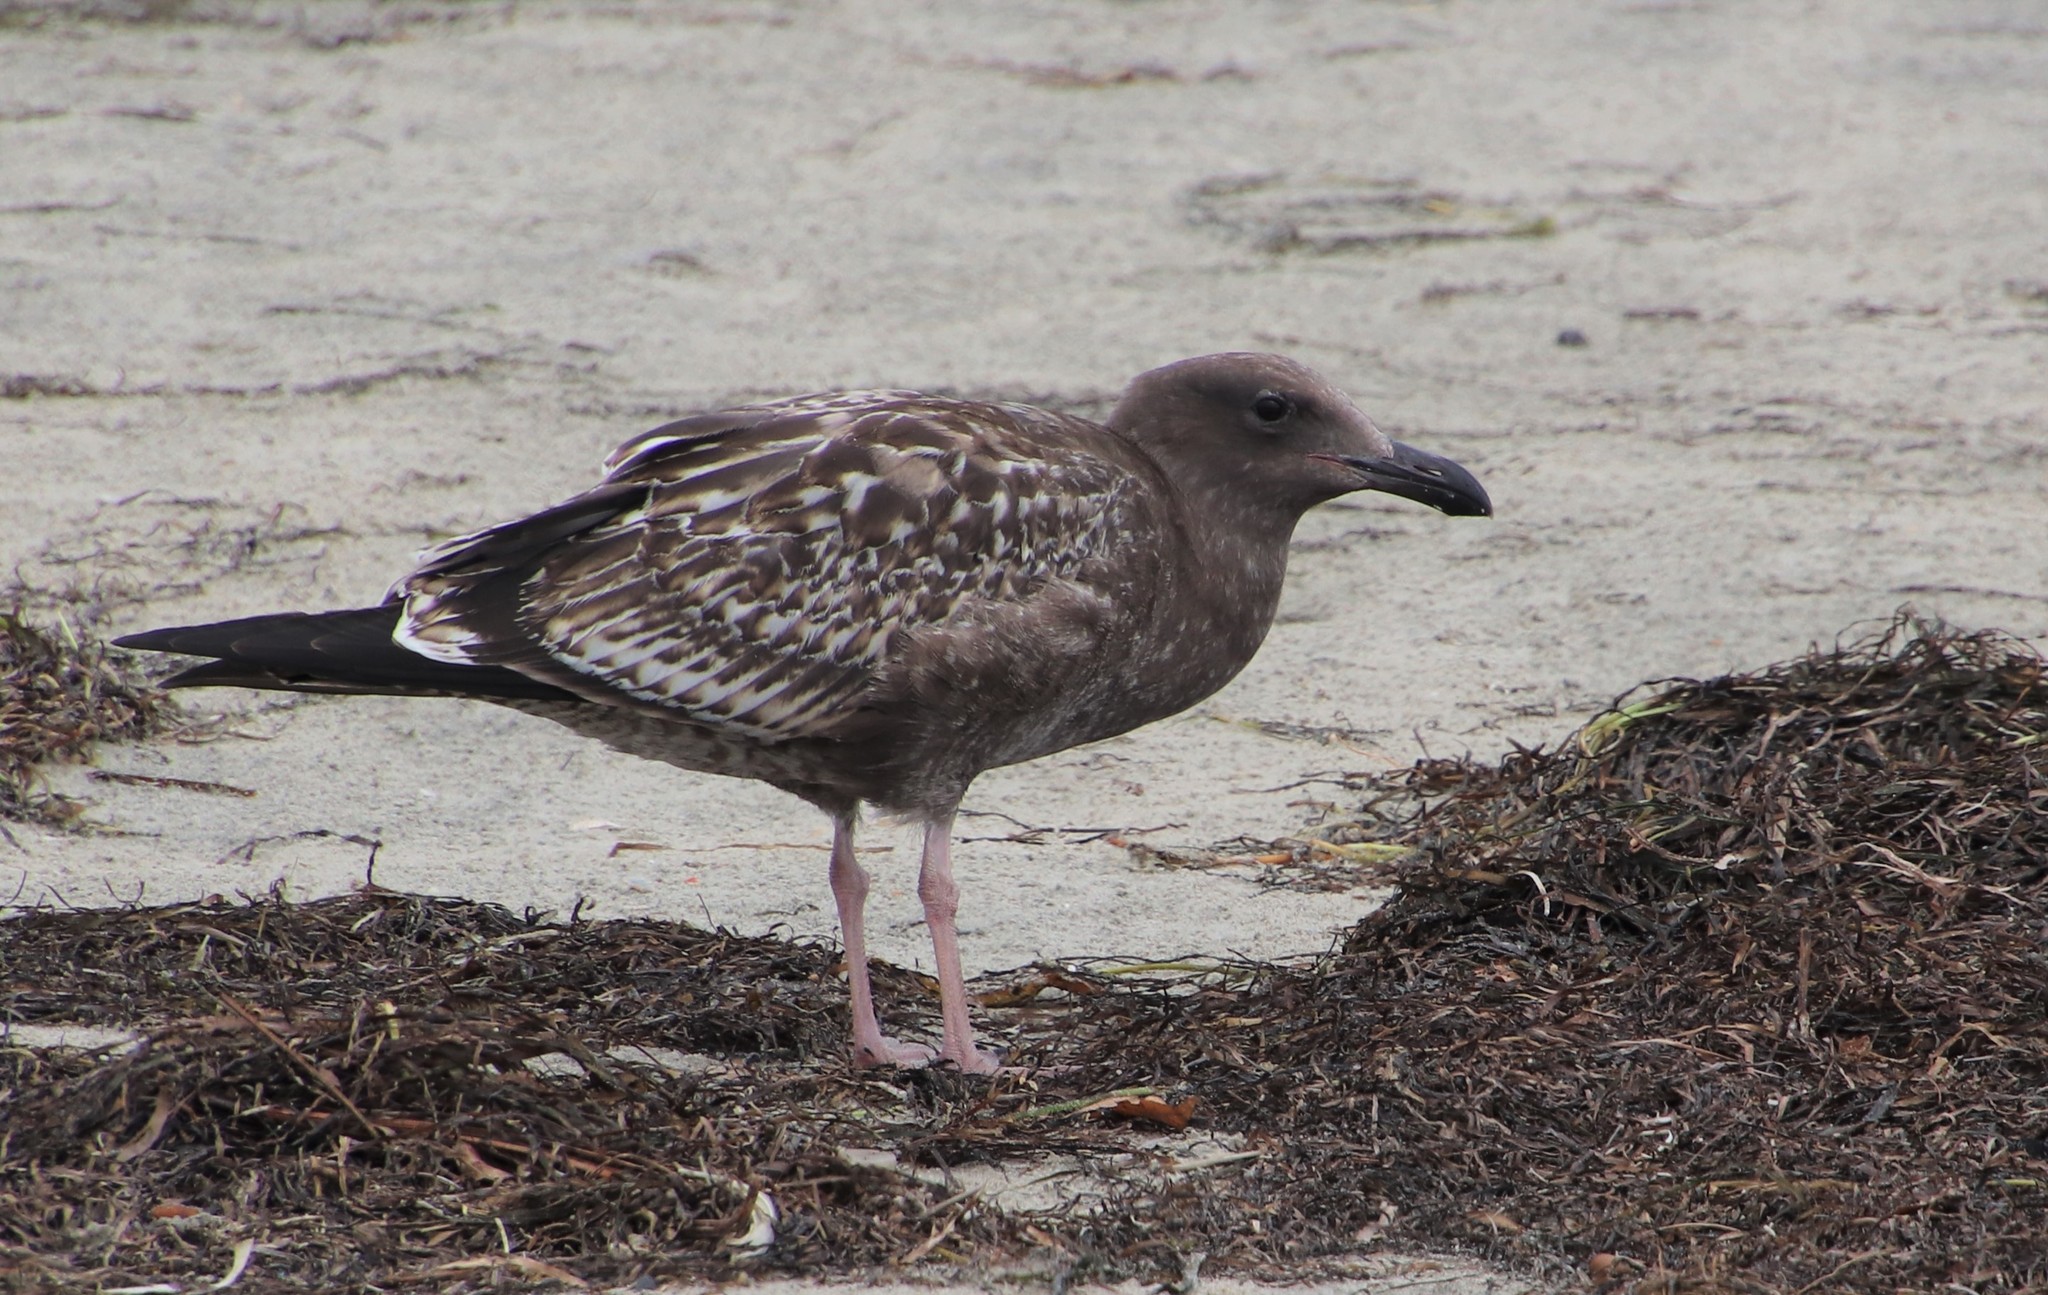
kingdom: Animalia
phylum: Chordata
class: Aves
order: Charadriiformes
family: Laridae
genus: Larus
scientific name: Larus occidentalis
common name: Western gull
